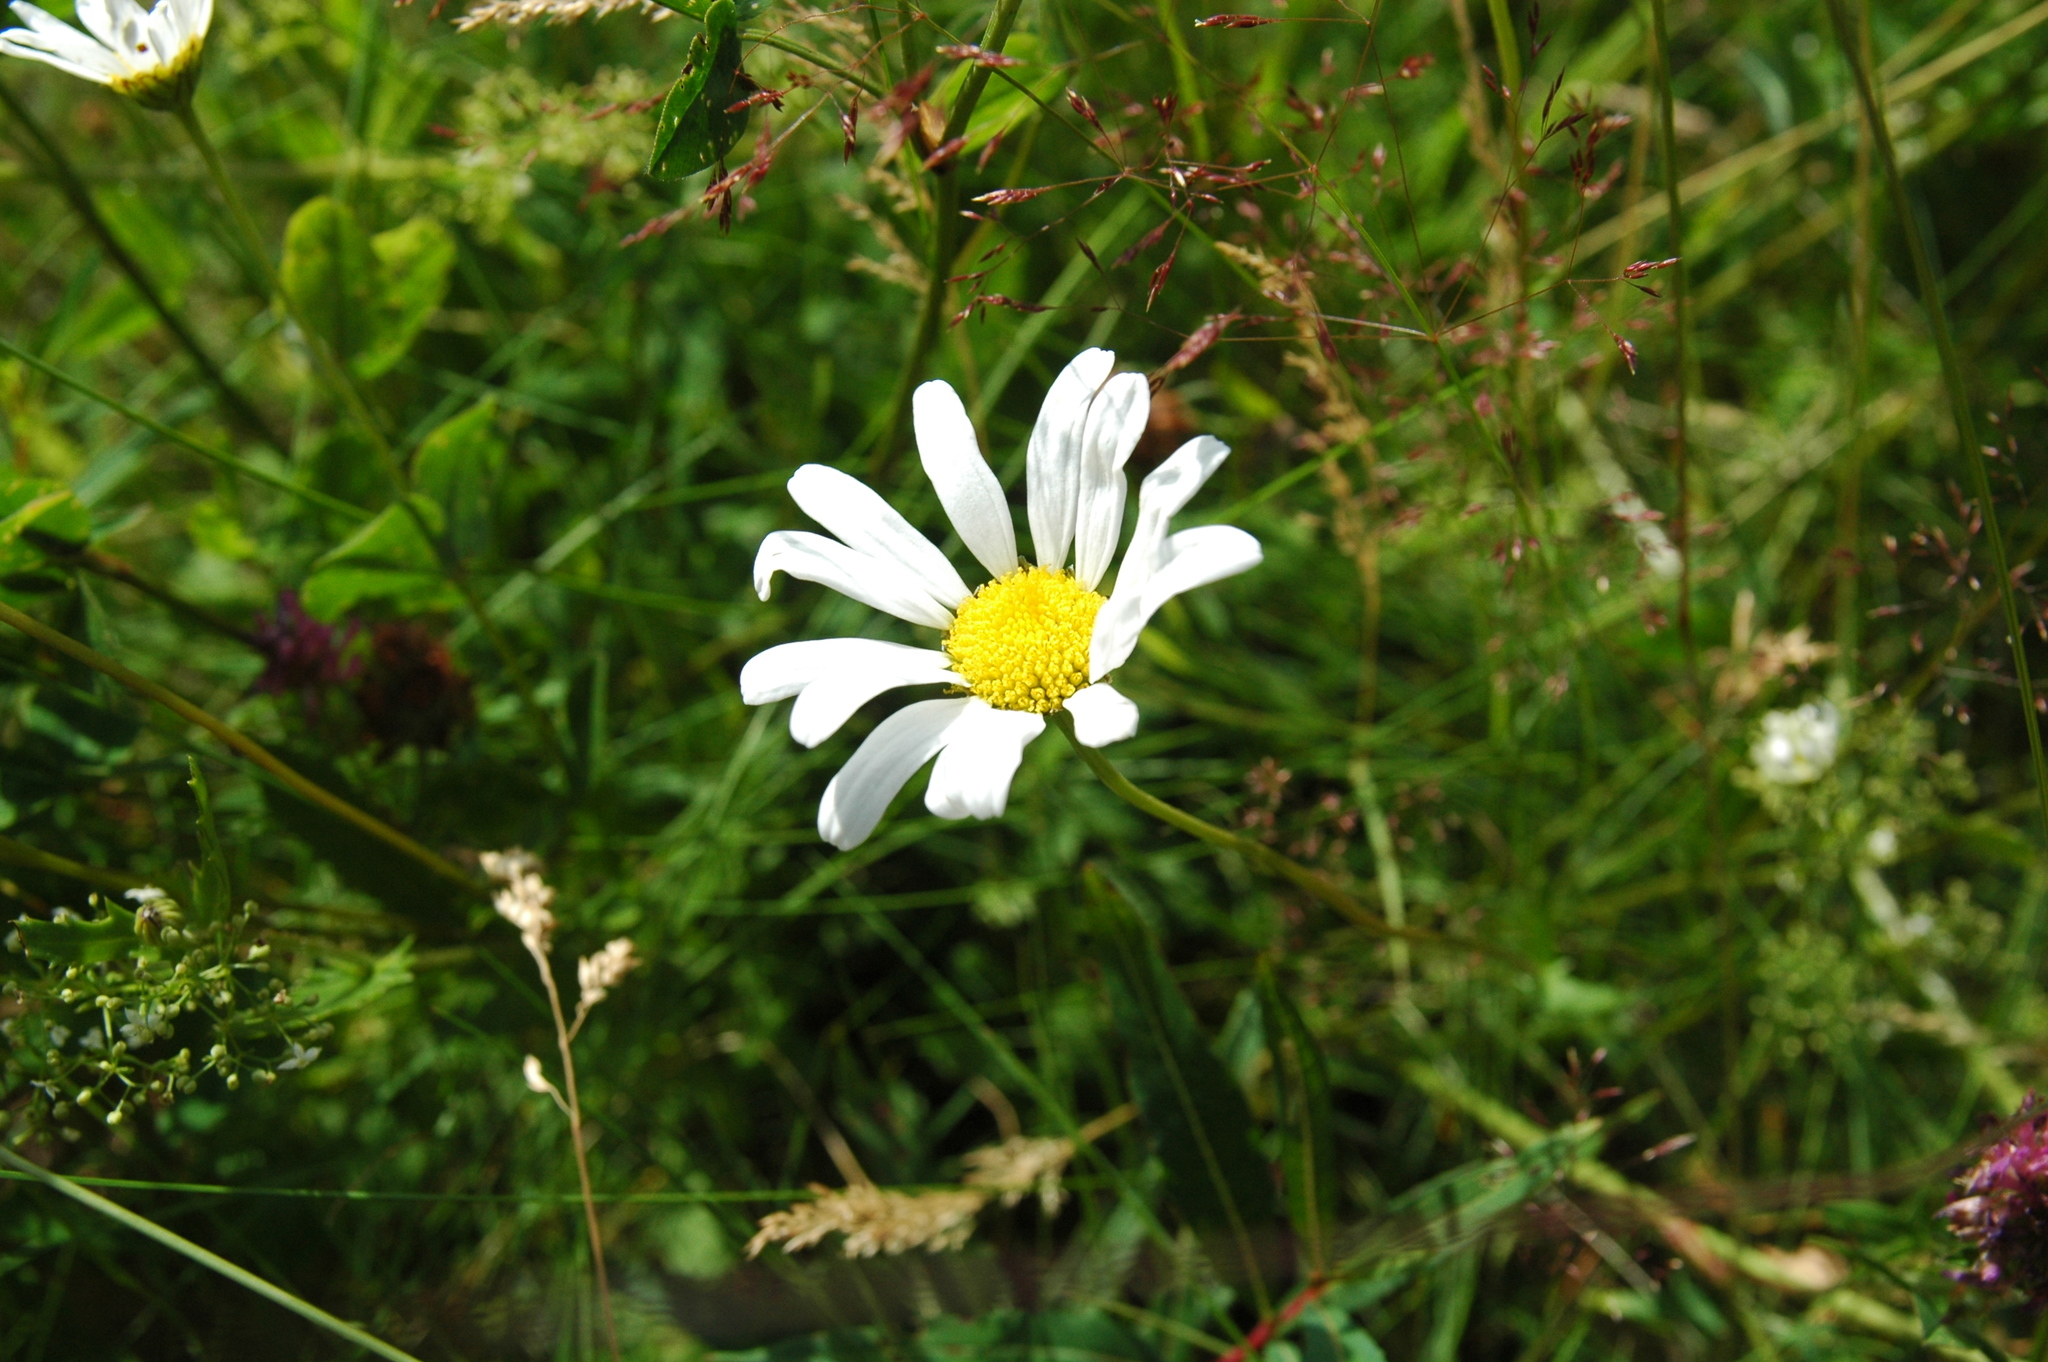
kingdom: Plantae
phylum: Tracheophyta
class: Magnoliopsida
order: Asterales
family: Asteraceae
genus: Leucanthemum
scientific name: Leucanthemum vulgare
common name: Oxeye daisy
